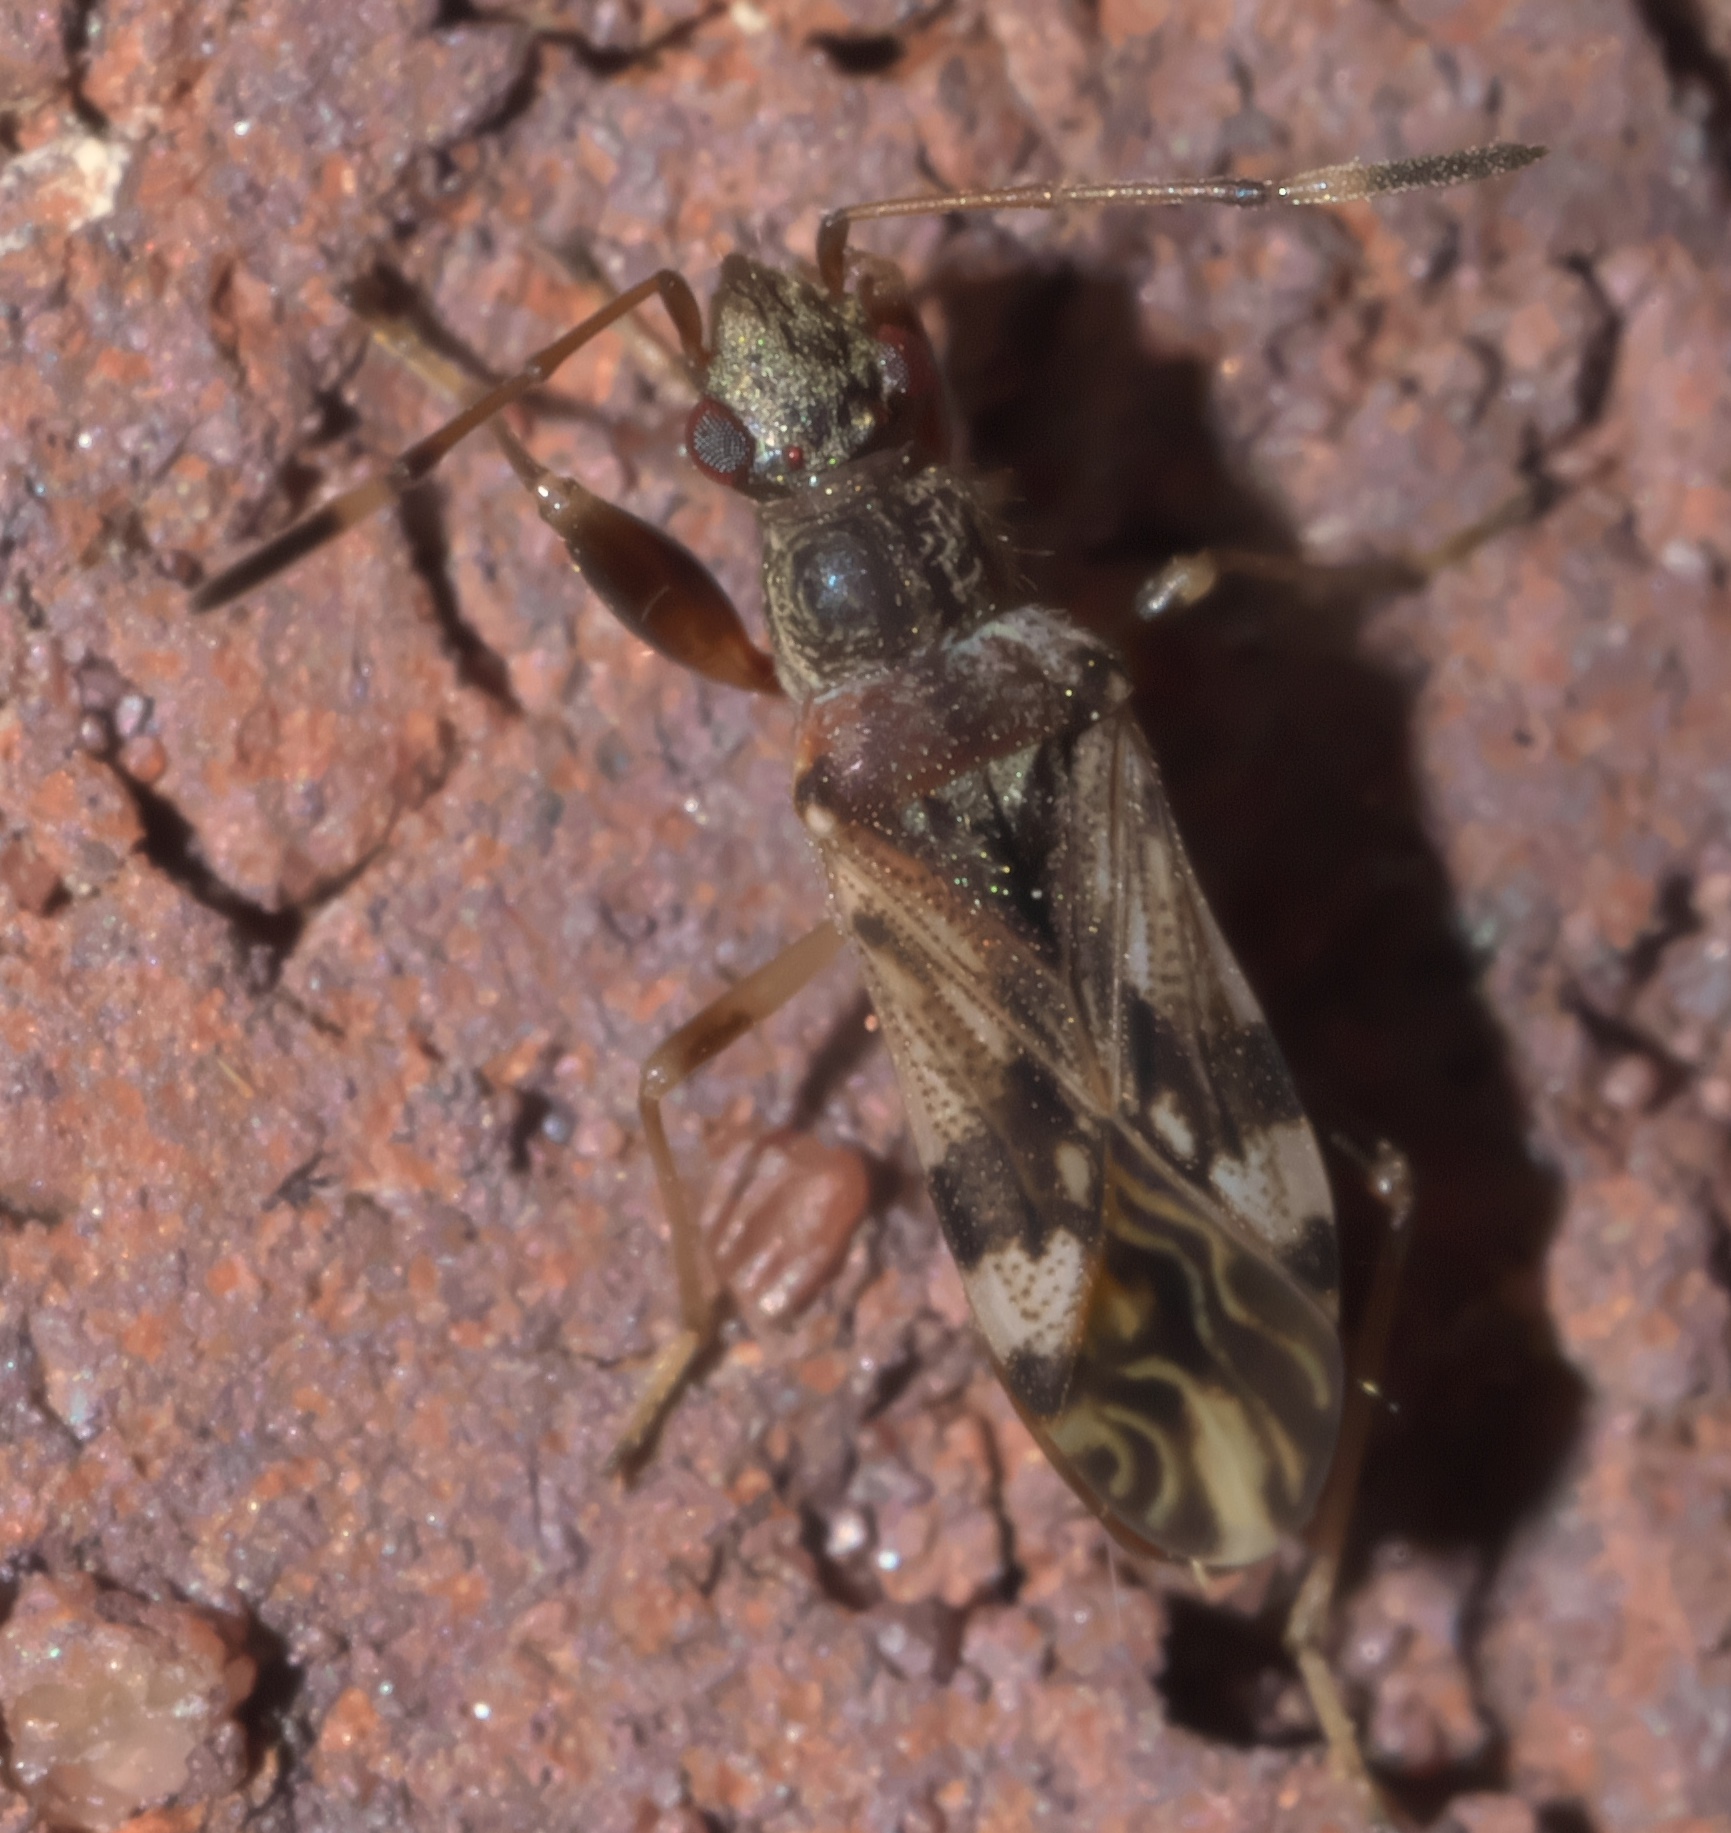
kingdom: Animalia
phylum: Arthropoda
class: Insecta
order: Hemiptera
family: Rhyparochromidae
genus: Neopamera
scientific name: Neopamera albocincta
